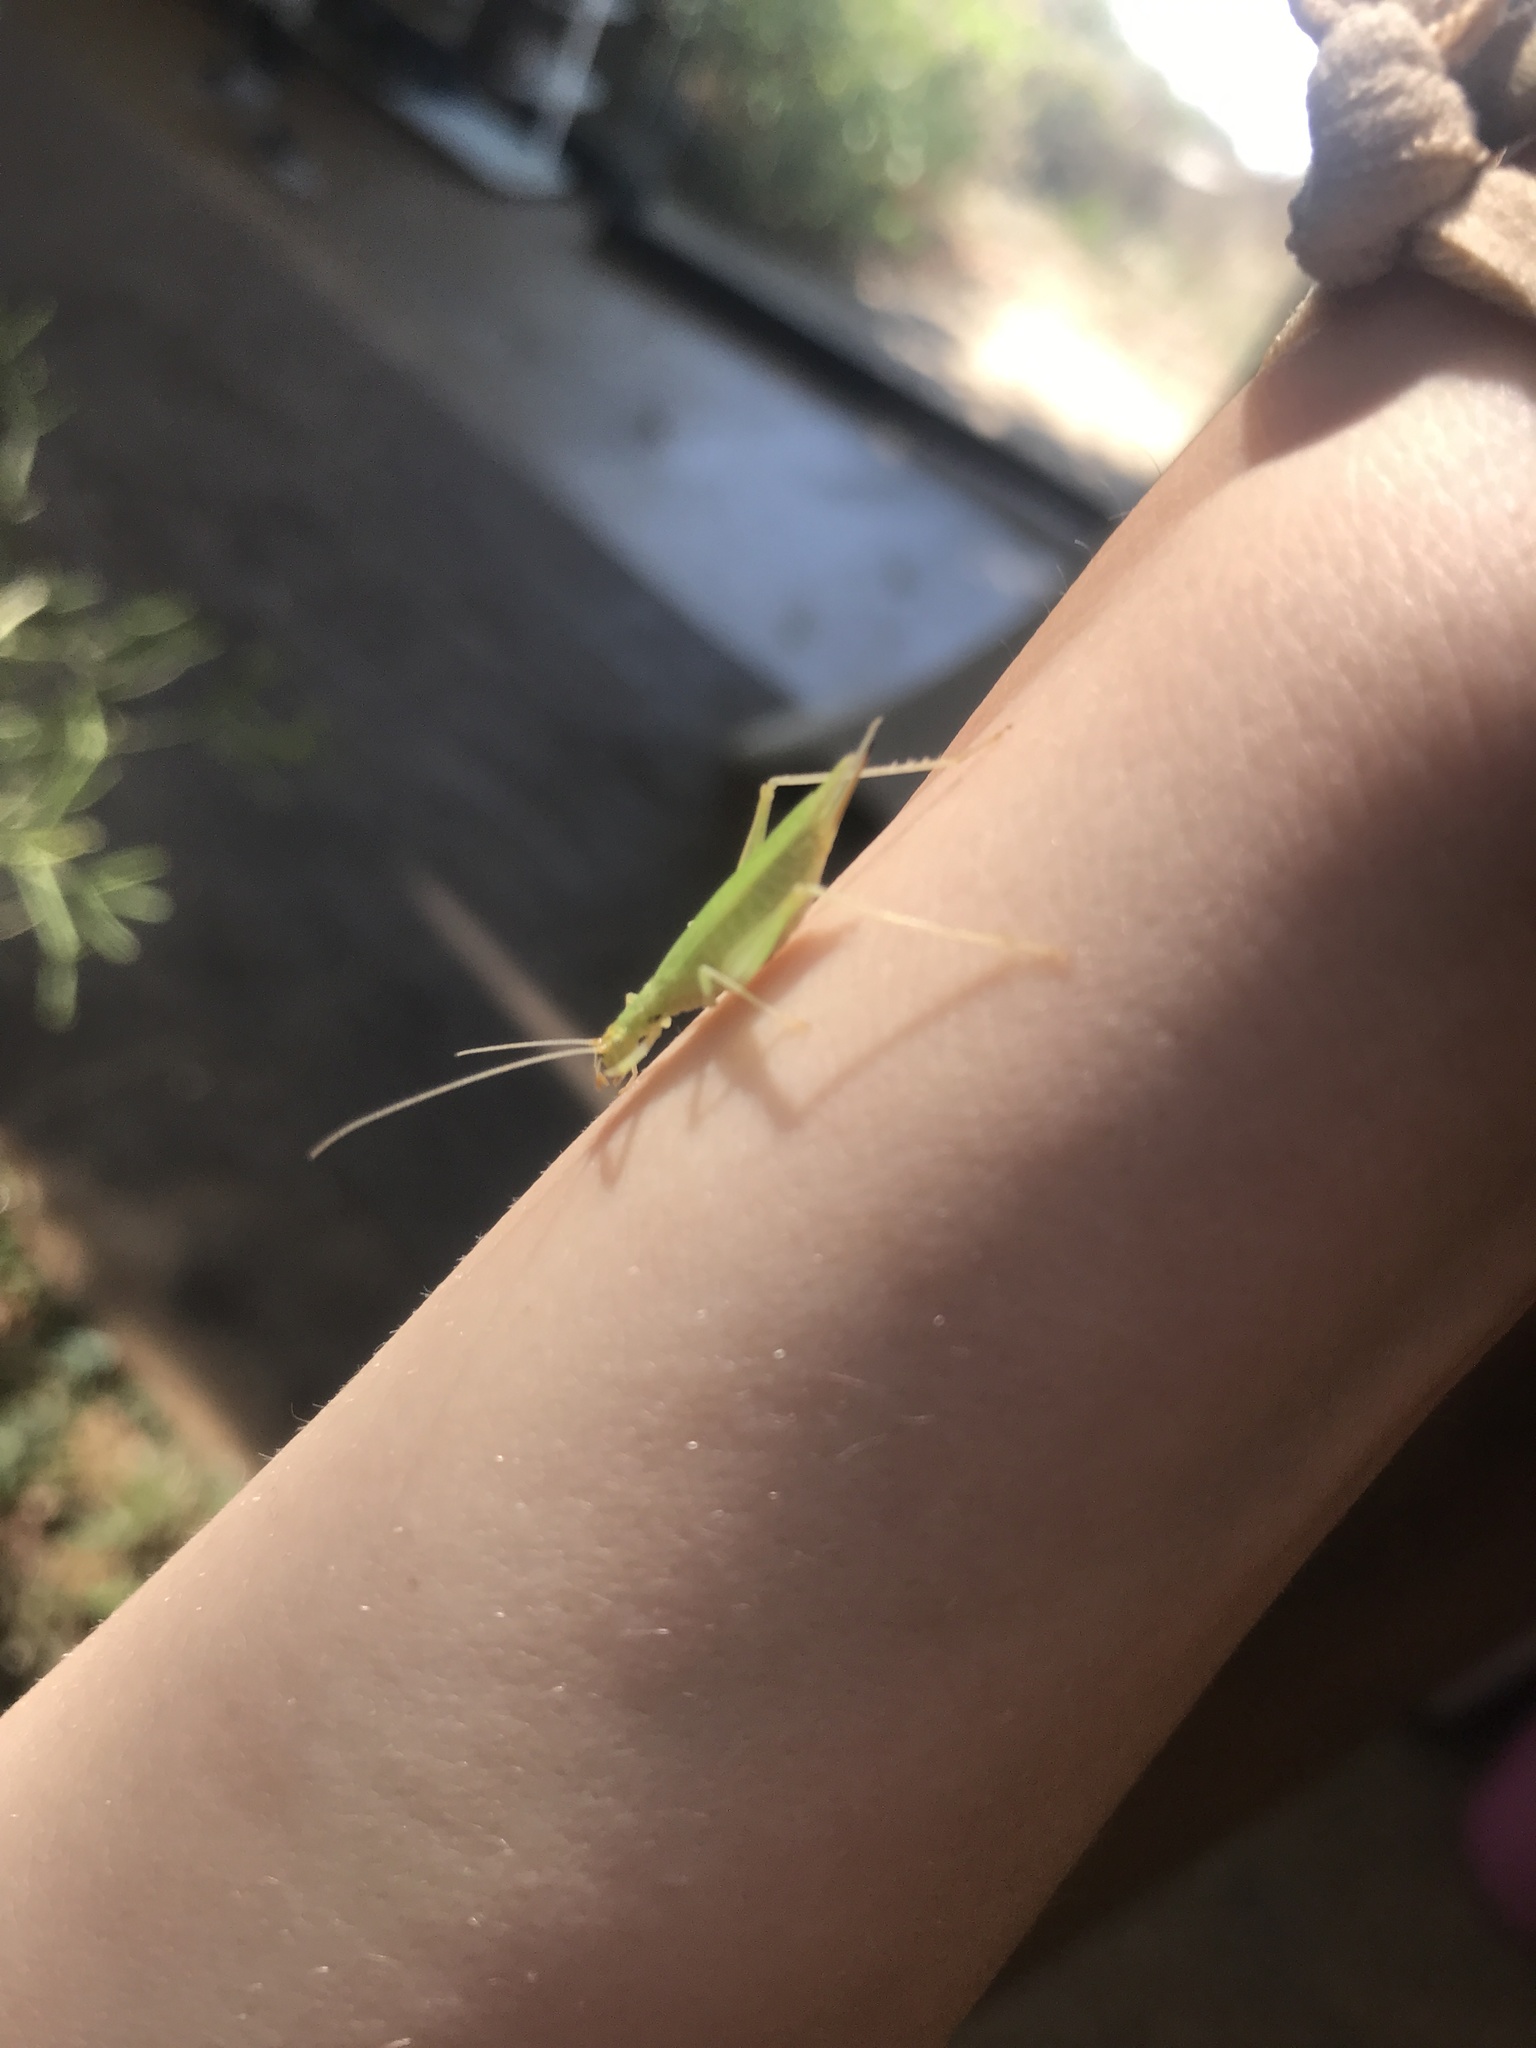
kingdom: Animalia
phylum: Arthropoda
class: Insecta
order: Orthoptera
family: Gryllidae
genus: Oecanthus
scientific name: Oecanthus
